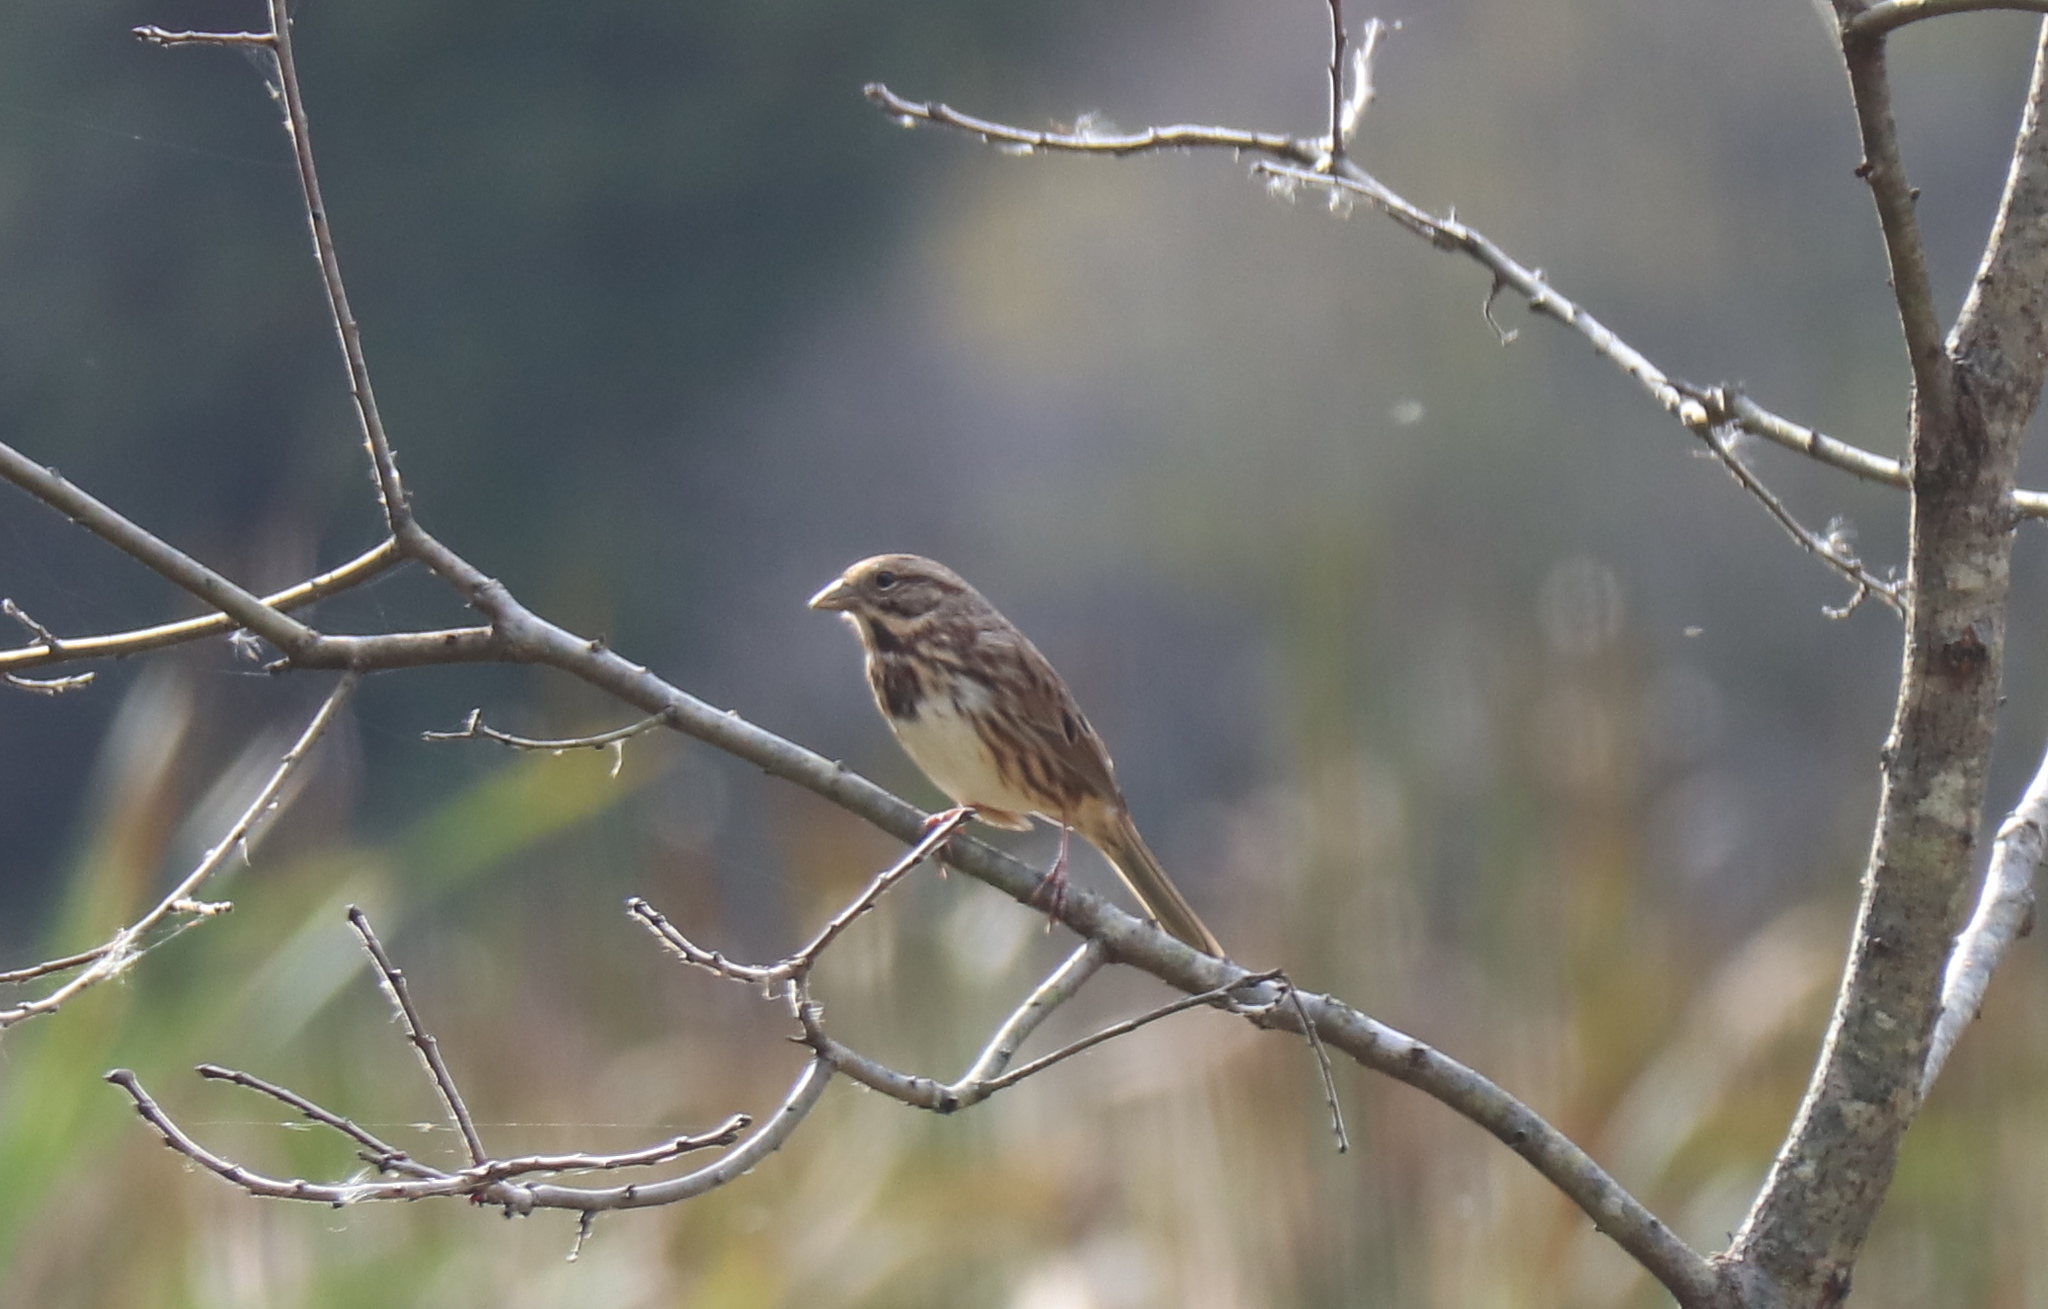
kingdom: Animalia
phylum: Chordata
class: Aves
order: Passeriformes
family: Passerellidae
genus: Melospiza
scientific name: Melospiza melodia
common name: Song sparrow
